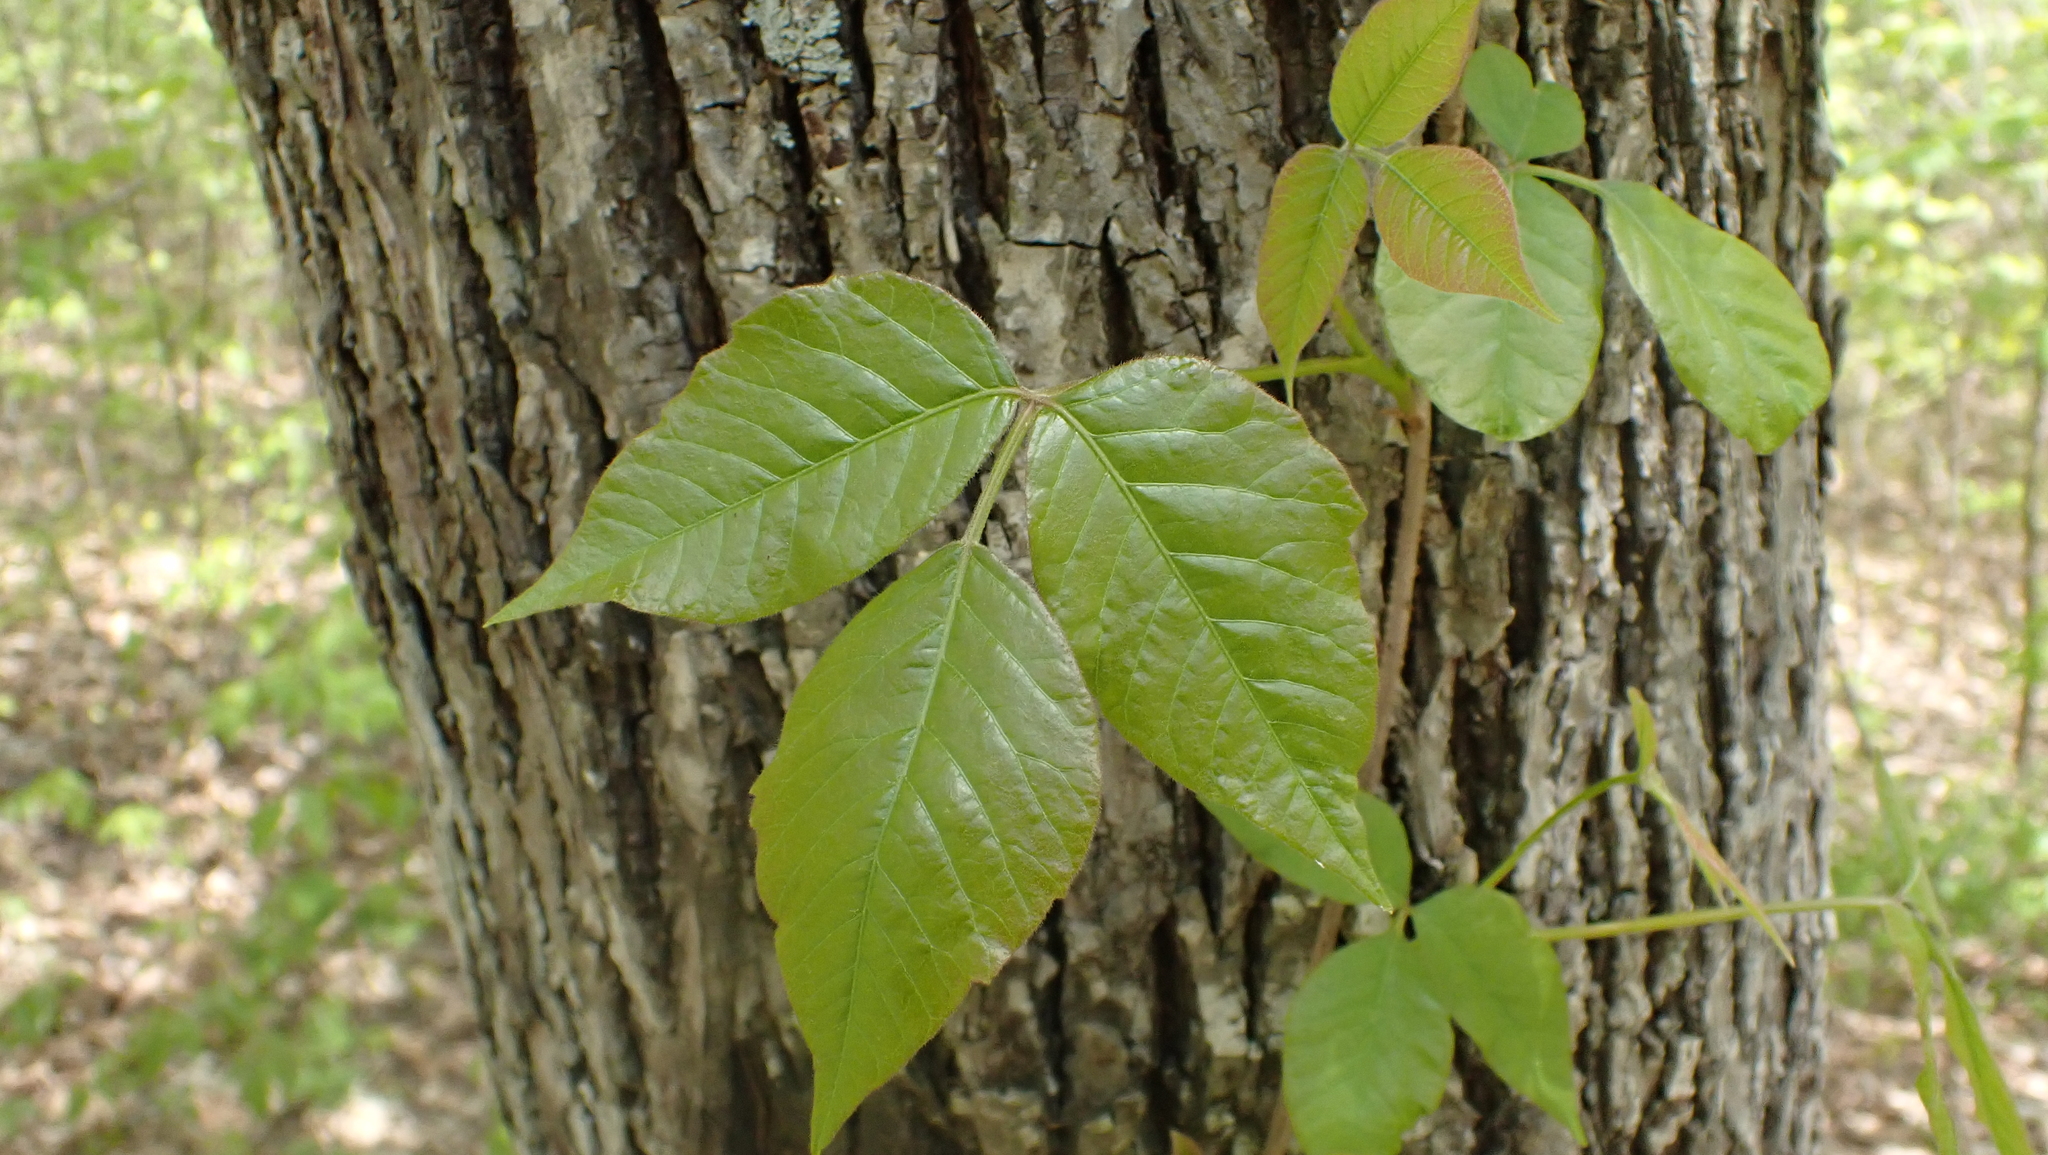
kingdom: Plantae
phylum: Tracheophyta
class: Magnoliopsida
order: Sapindales
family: Anacardiaceae
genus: Toxicodendron
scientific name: Toxicodendron radicans
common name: Poison ivy
